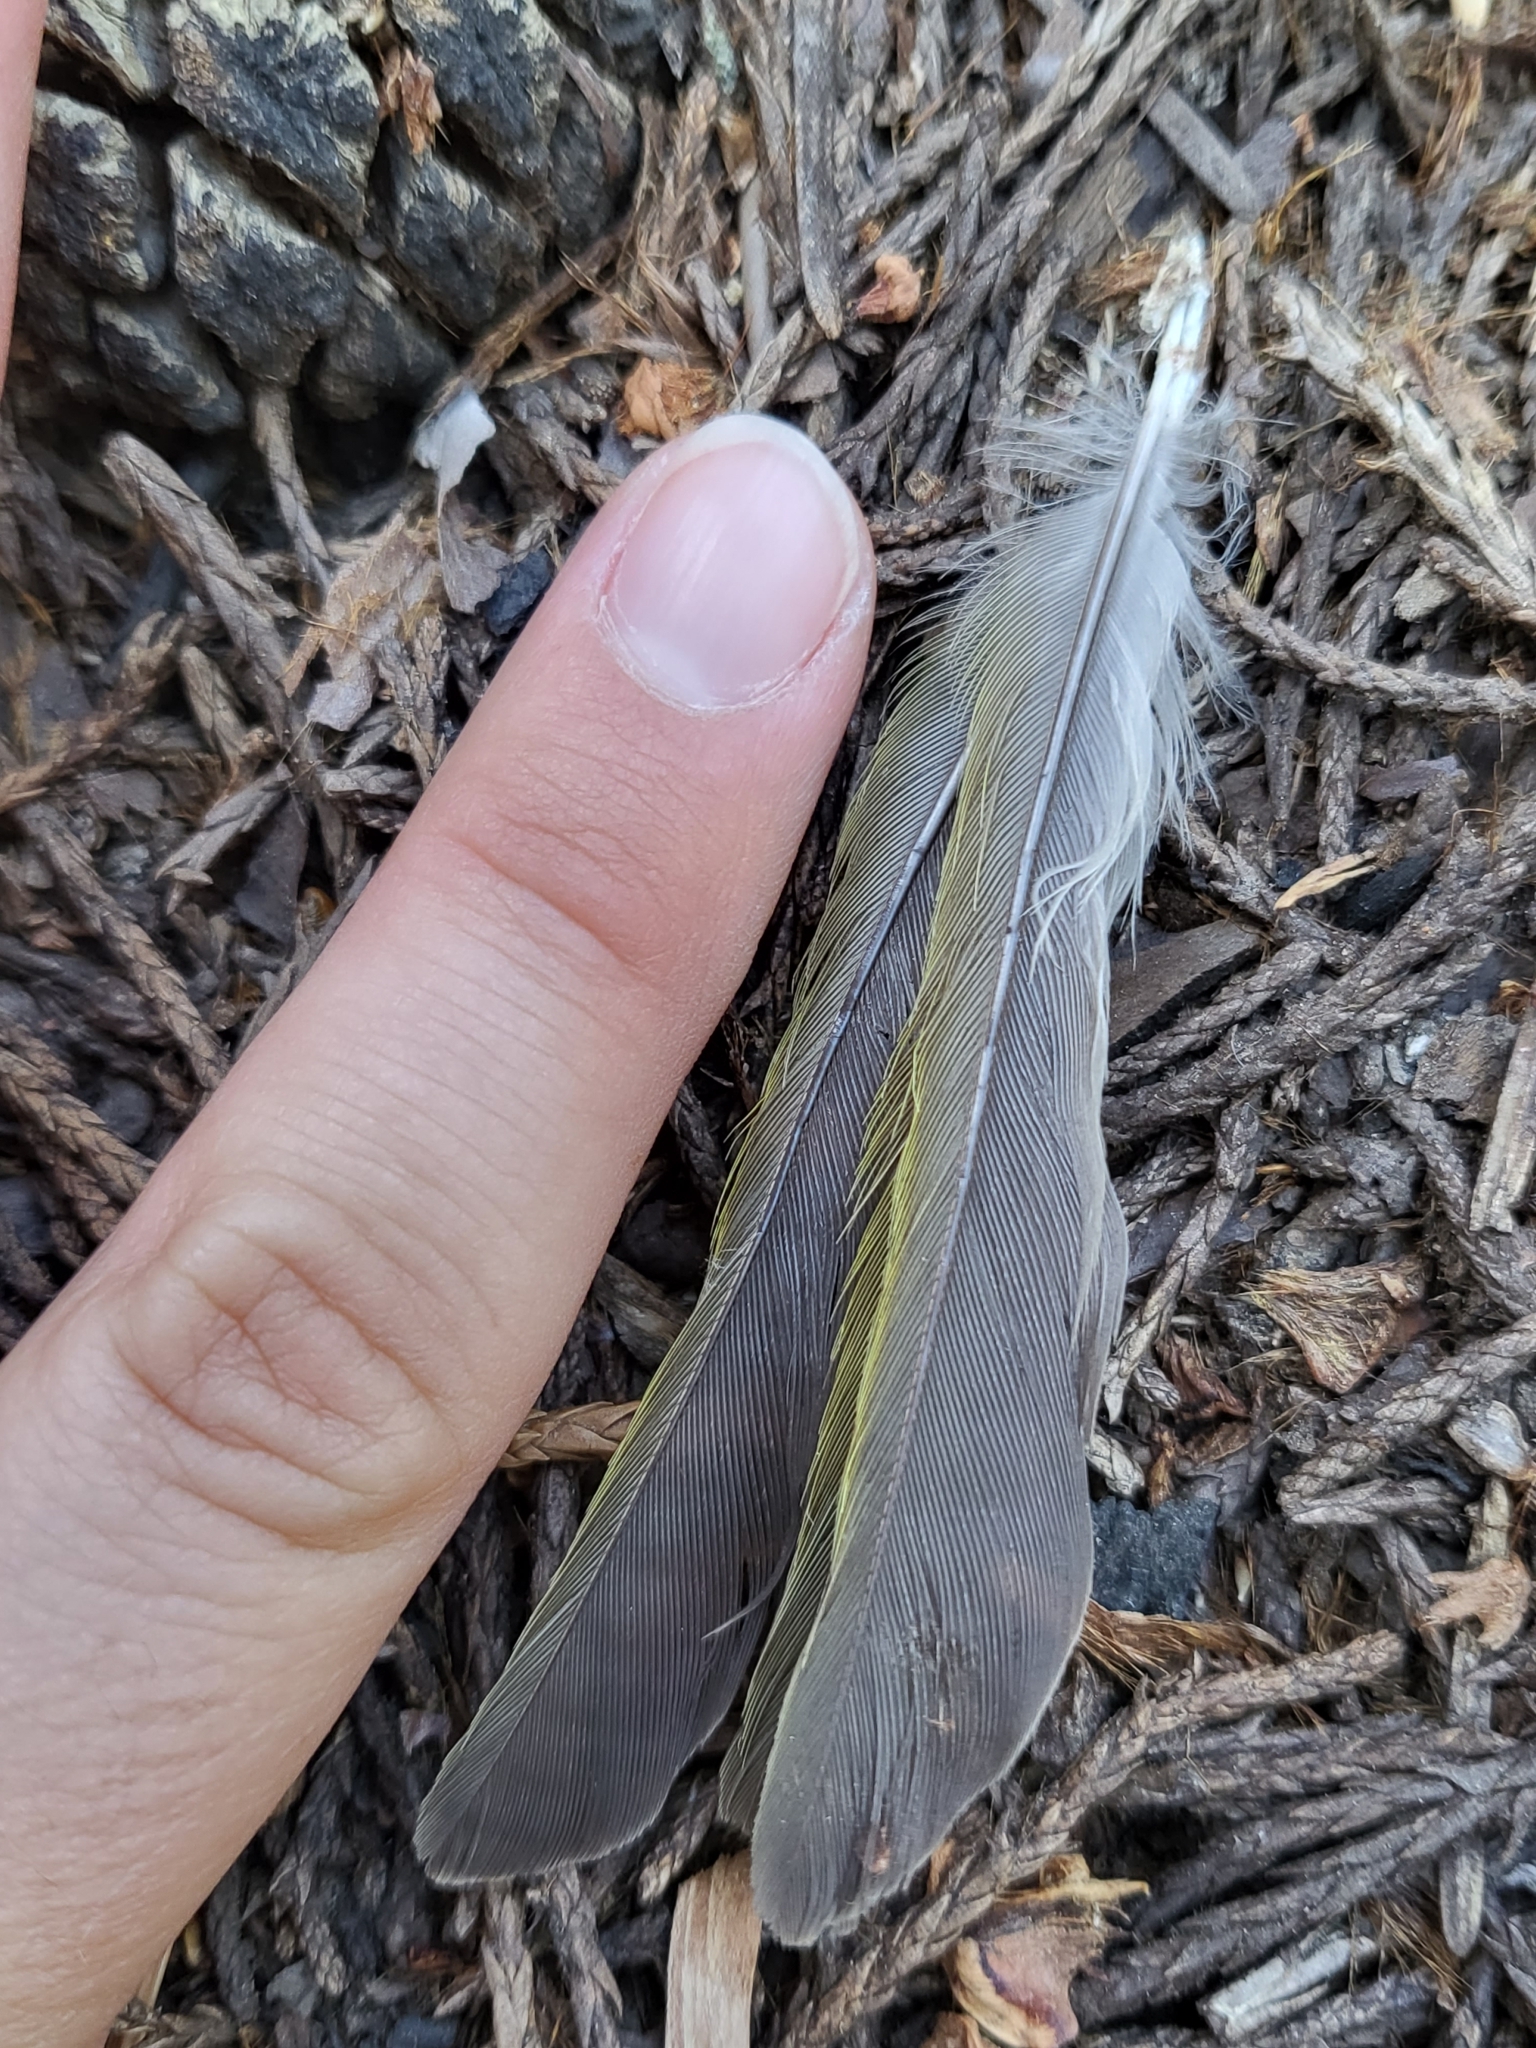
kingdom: Animalia
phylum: Chordata
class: Aves
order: Passeriformes
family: Cardinalidae
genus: Piranga
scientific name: Piranga ludoviciana
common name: Western tanager
